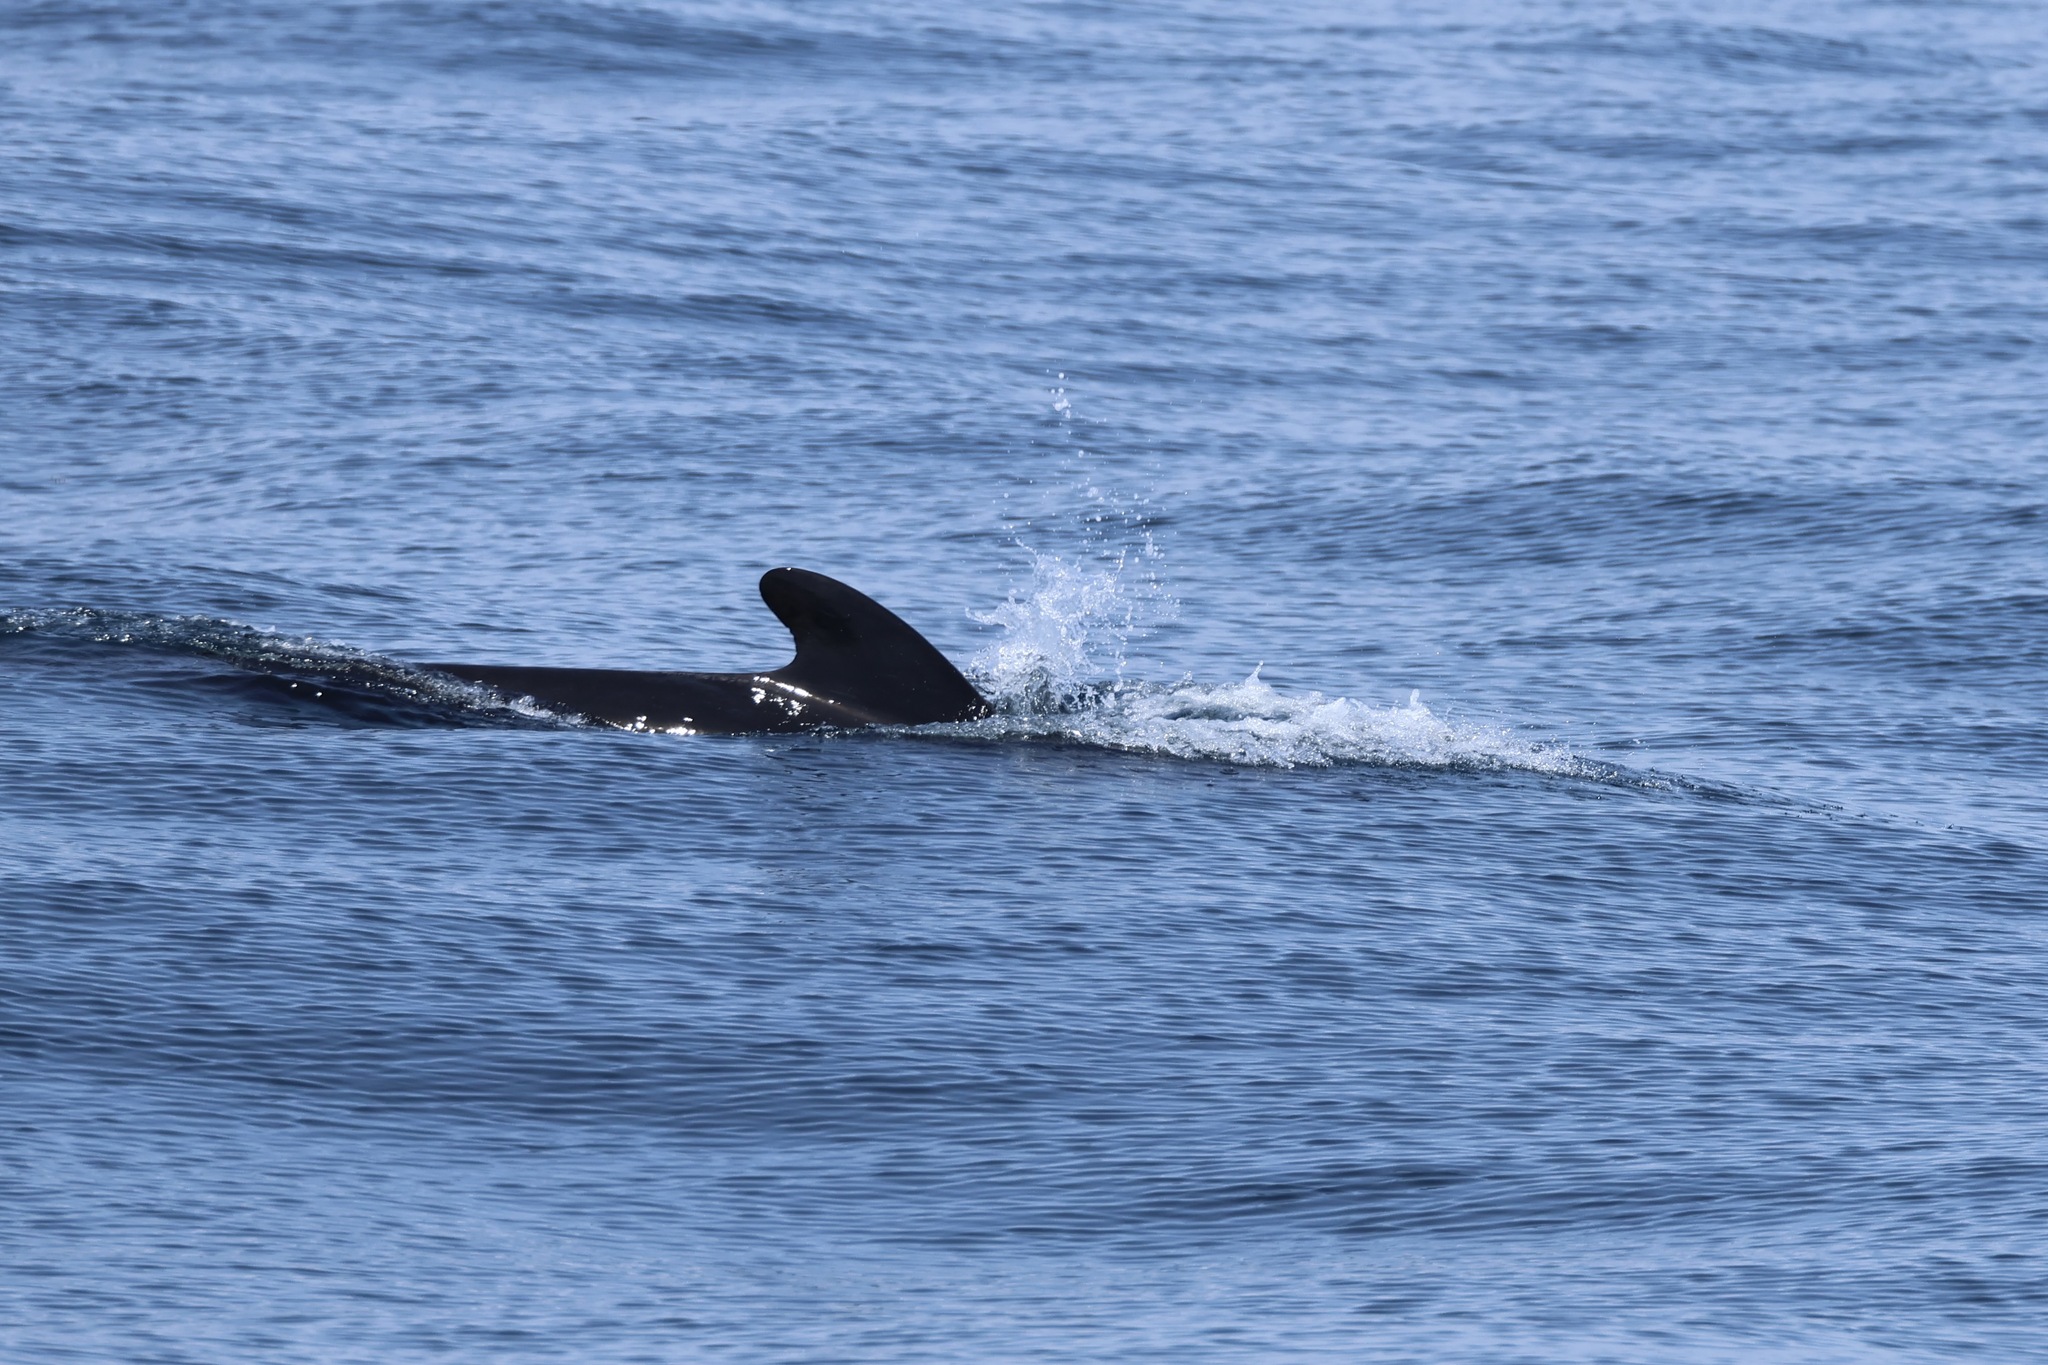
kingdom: Animalia
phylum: Chordata
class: Mammalia
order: Cetacea
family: Delphinidae
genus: Globicephala
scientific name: Globicephala melas
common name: Long-finned pilot whale
